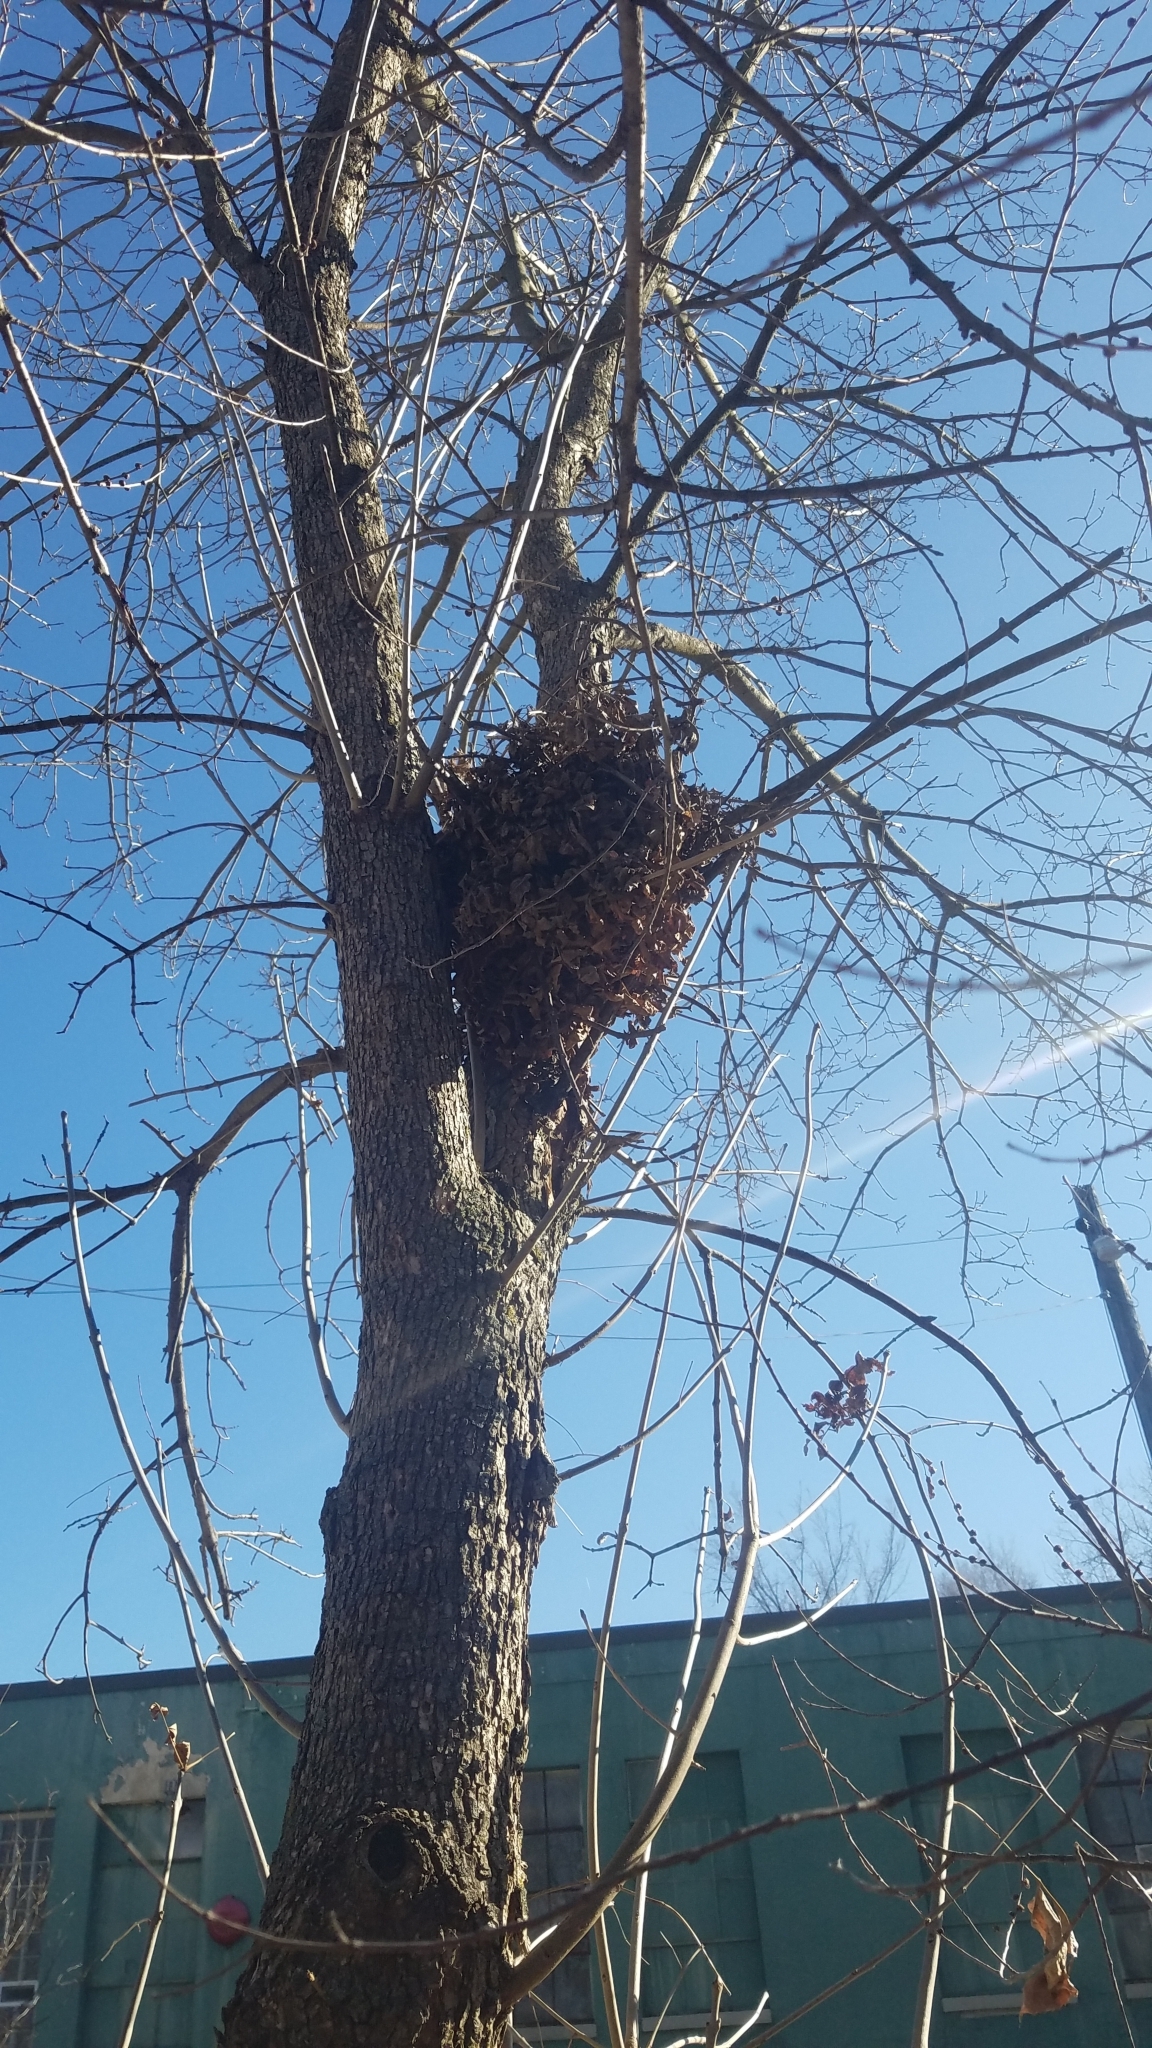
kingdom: Animalia
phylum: Chordata
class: Mammalia
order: Rodentia
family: Sciuridae
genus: Sciurus
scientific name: Sciurus carolinensis
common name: Eastern gray squirrel
